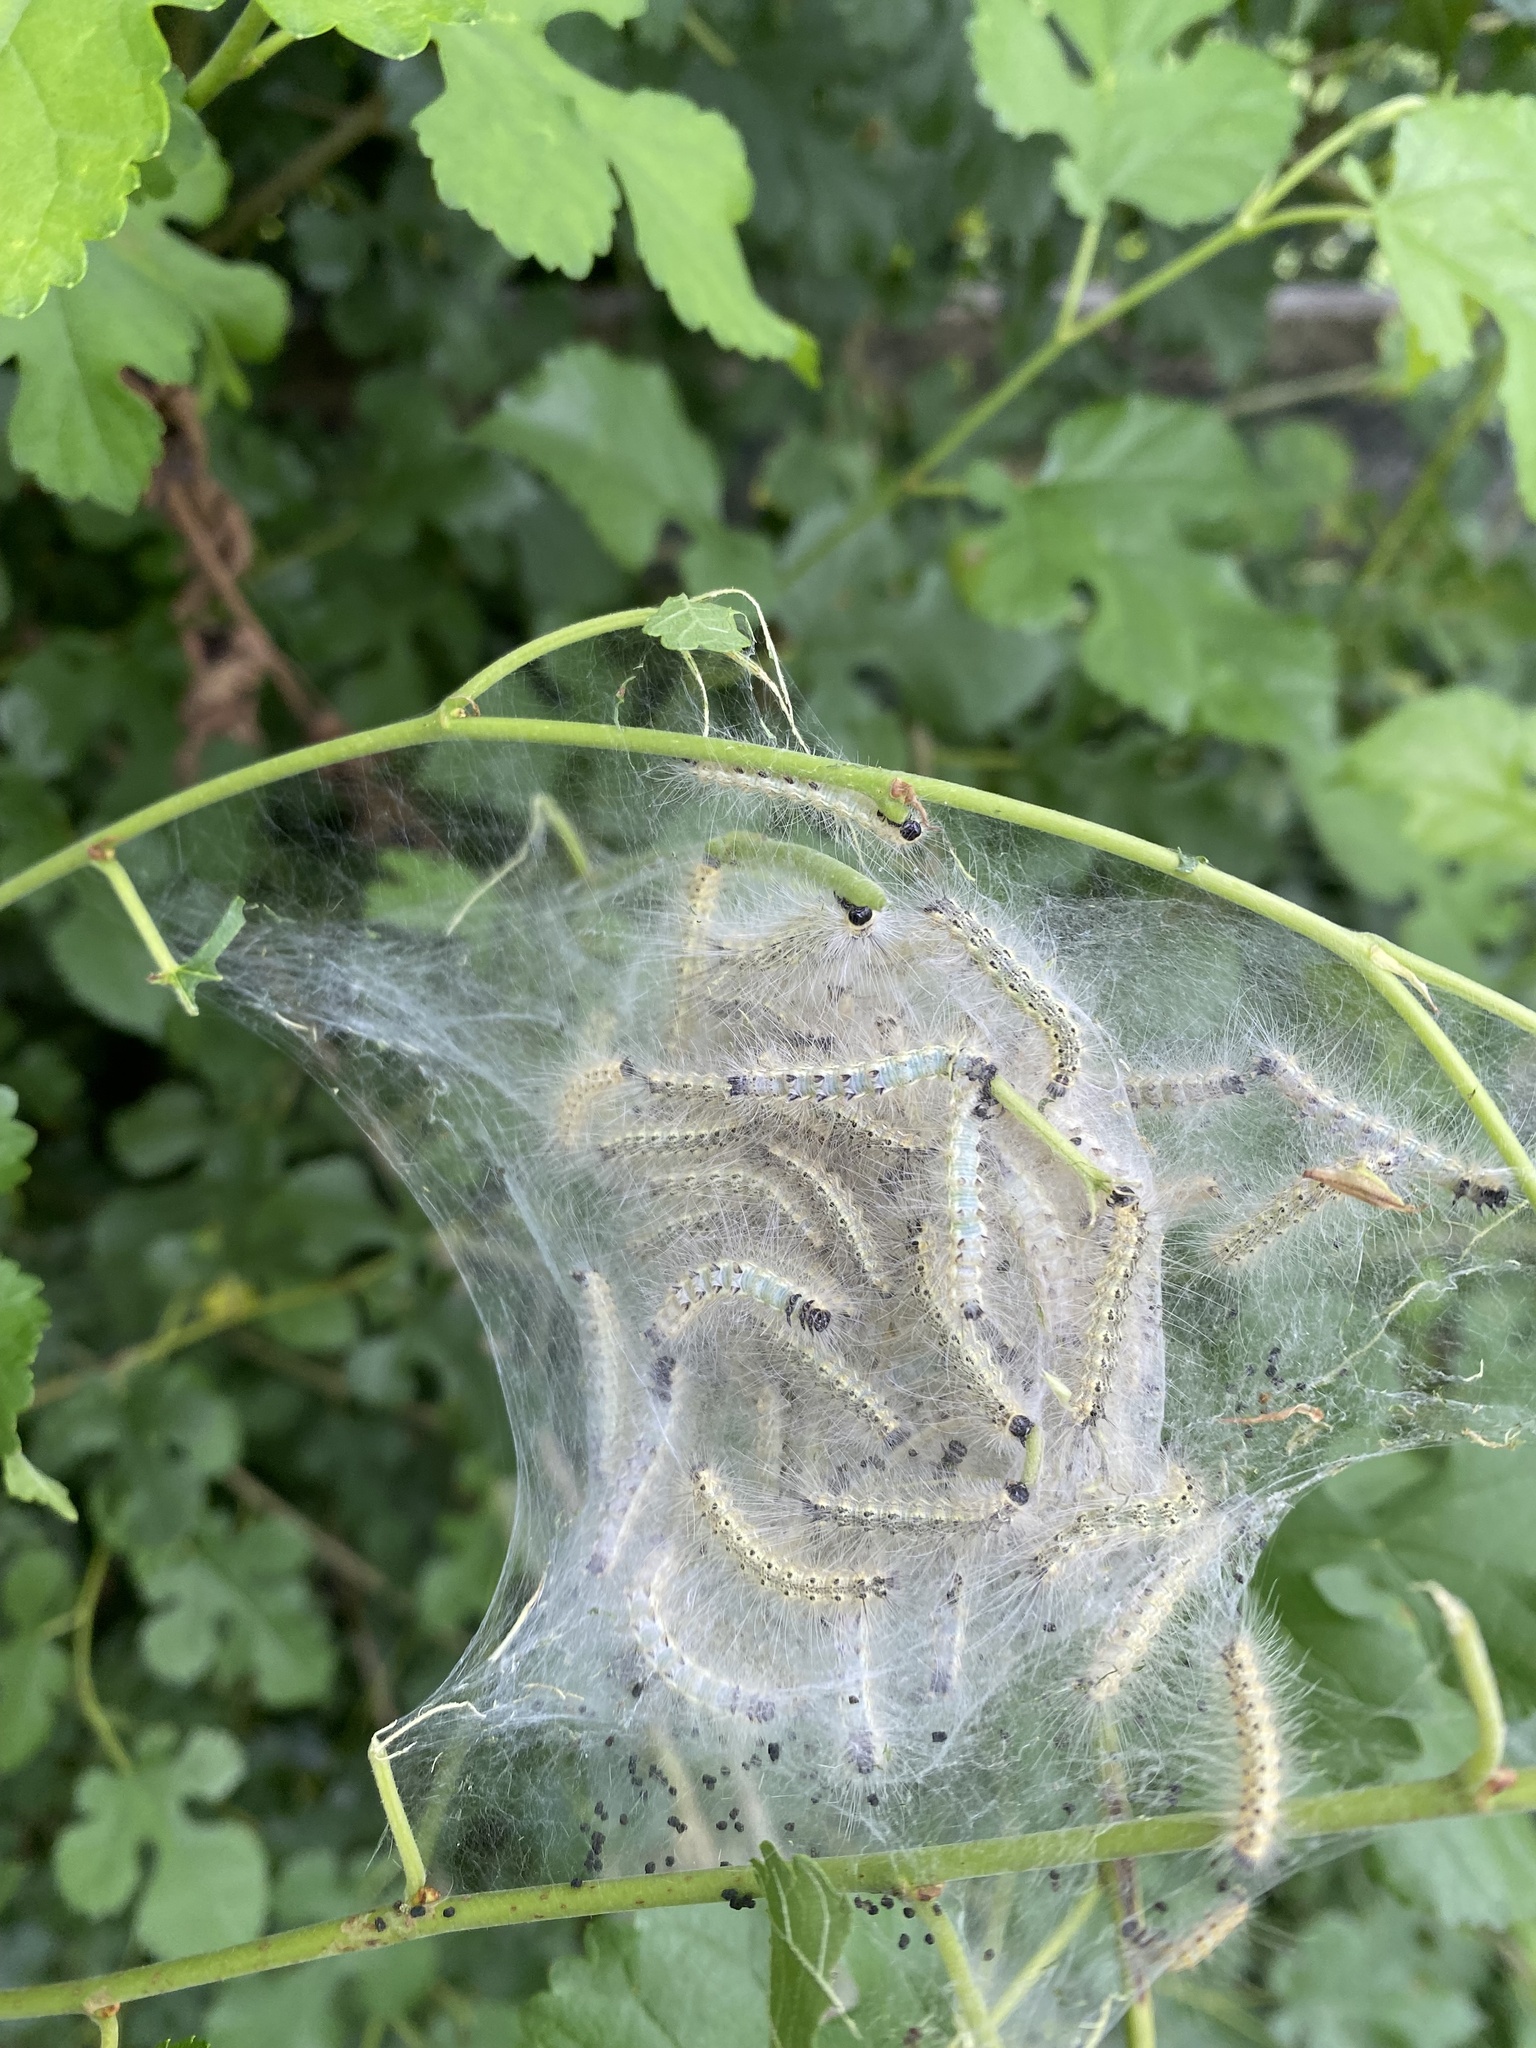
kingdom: Animalia
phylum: Arthropoda
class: Insecta
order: Lepidoptera
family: Erebidae
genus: Hyphantria
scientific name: Hyphantria cunea
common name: American white moth
